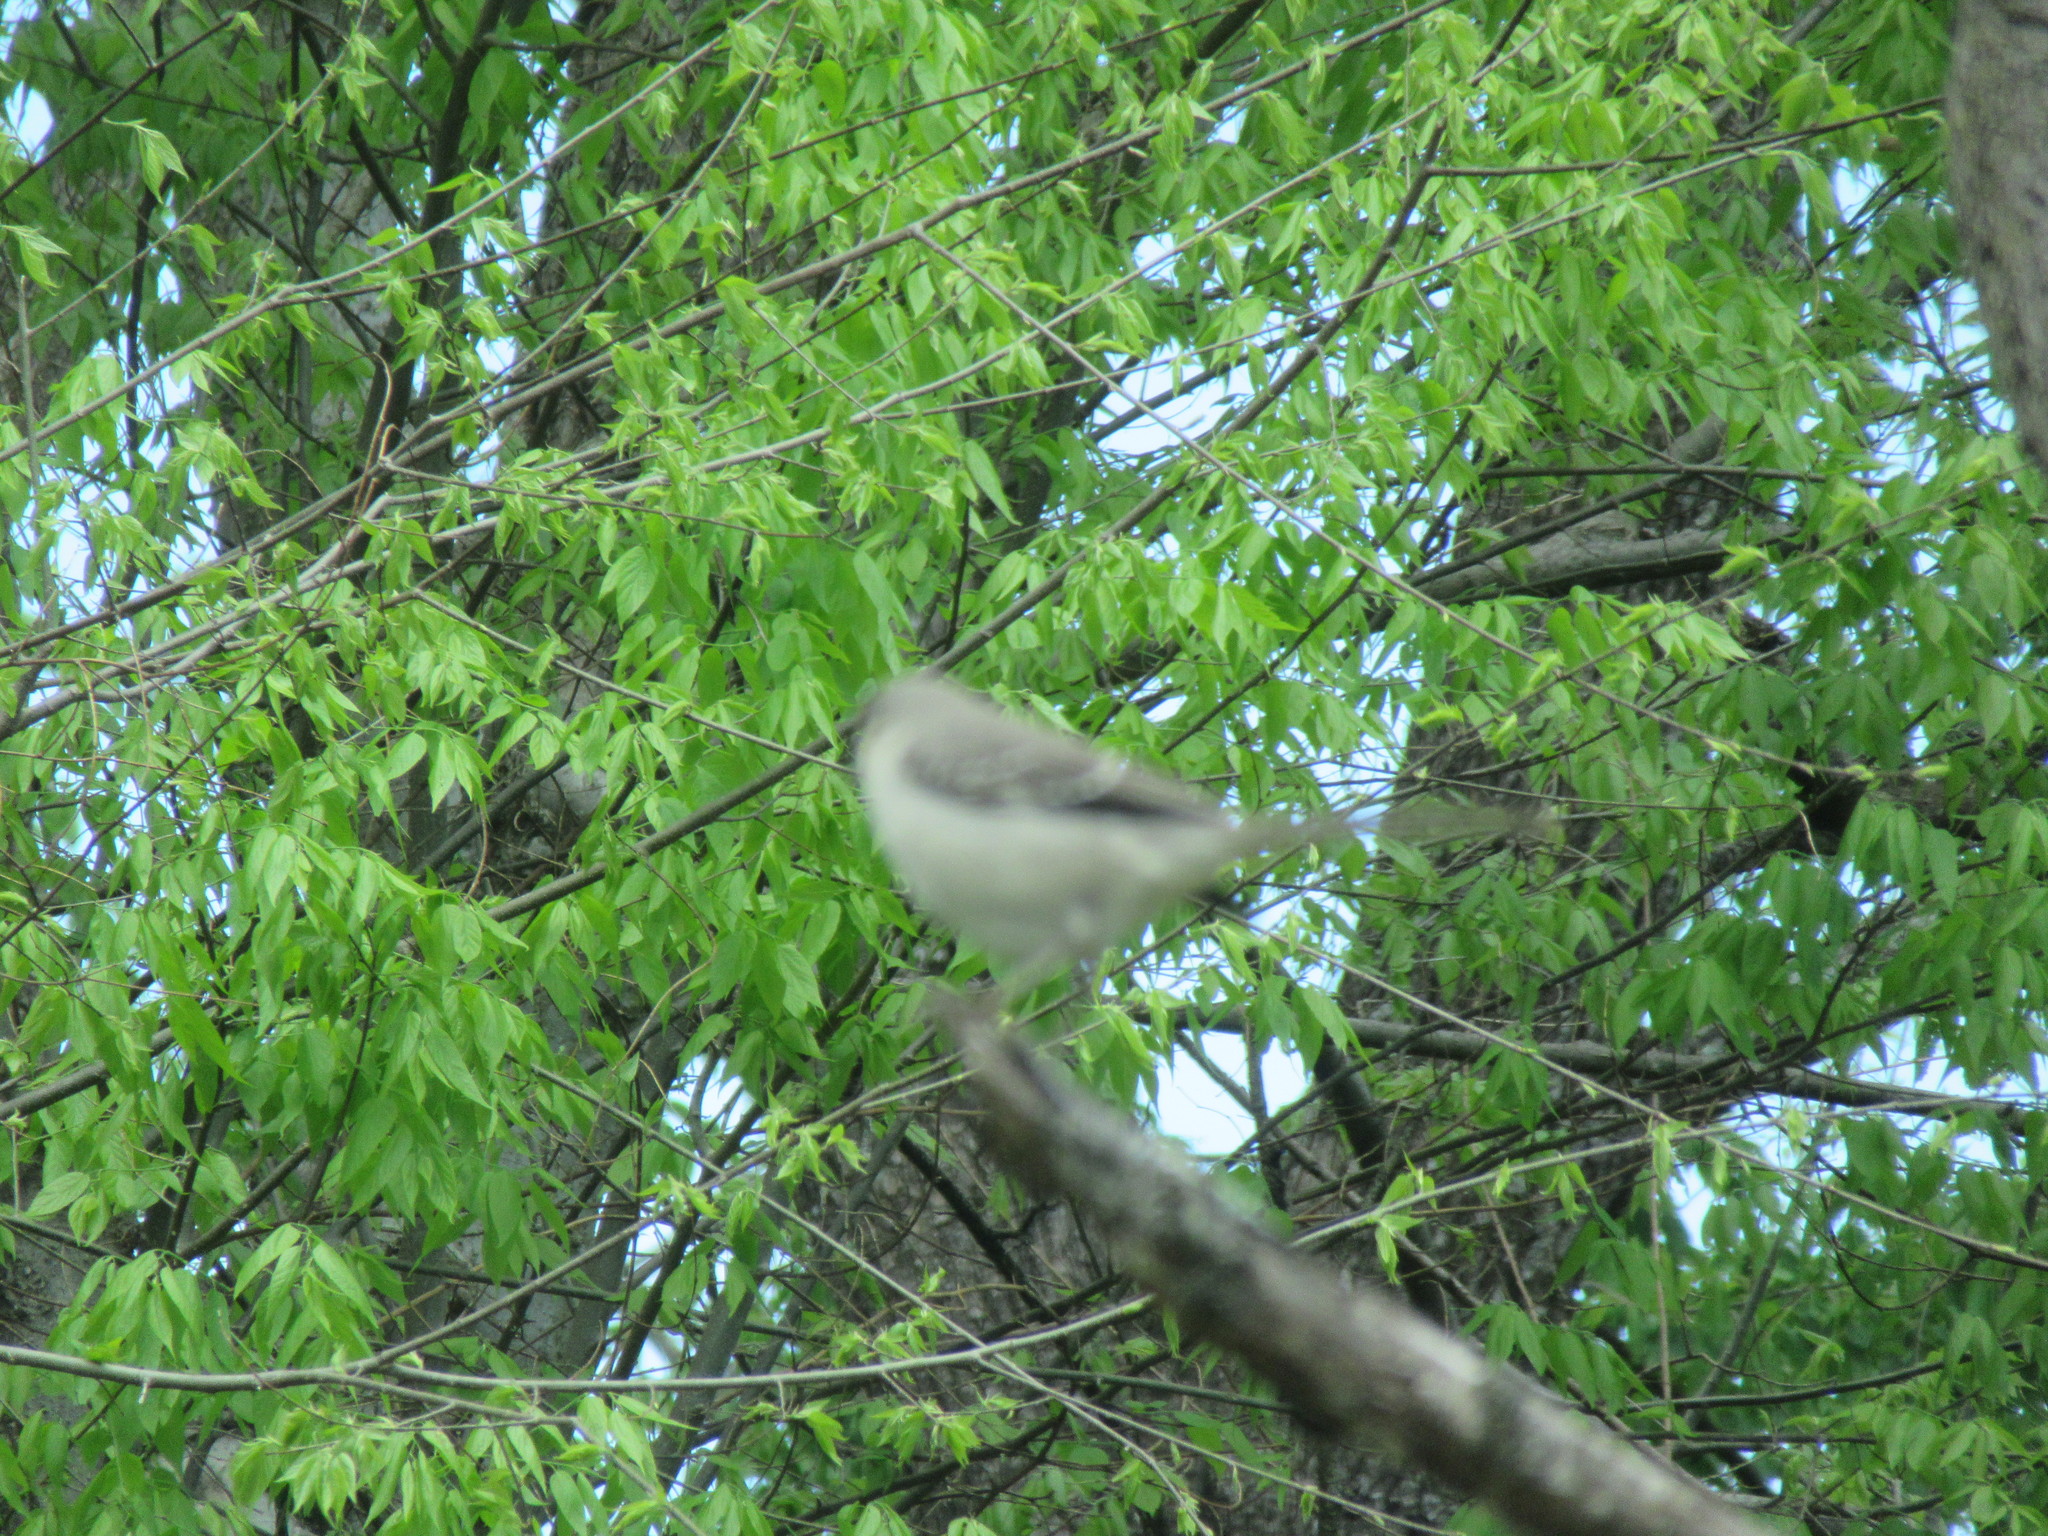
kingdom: Animalia
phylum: Chordata
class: Aves
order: Passeriformes
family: Mimidae
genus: Mimus
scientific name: Mimus polyglottos
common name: Northern mockingbird
